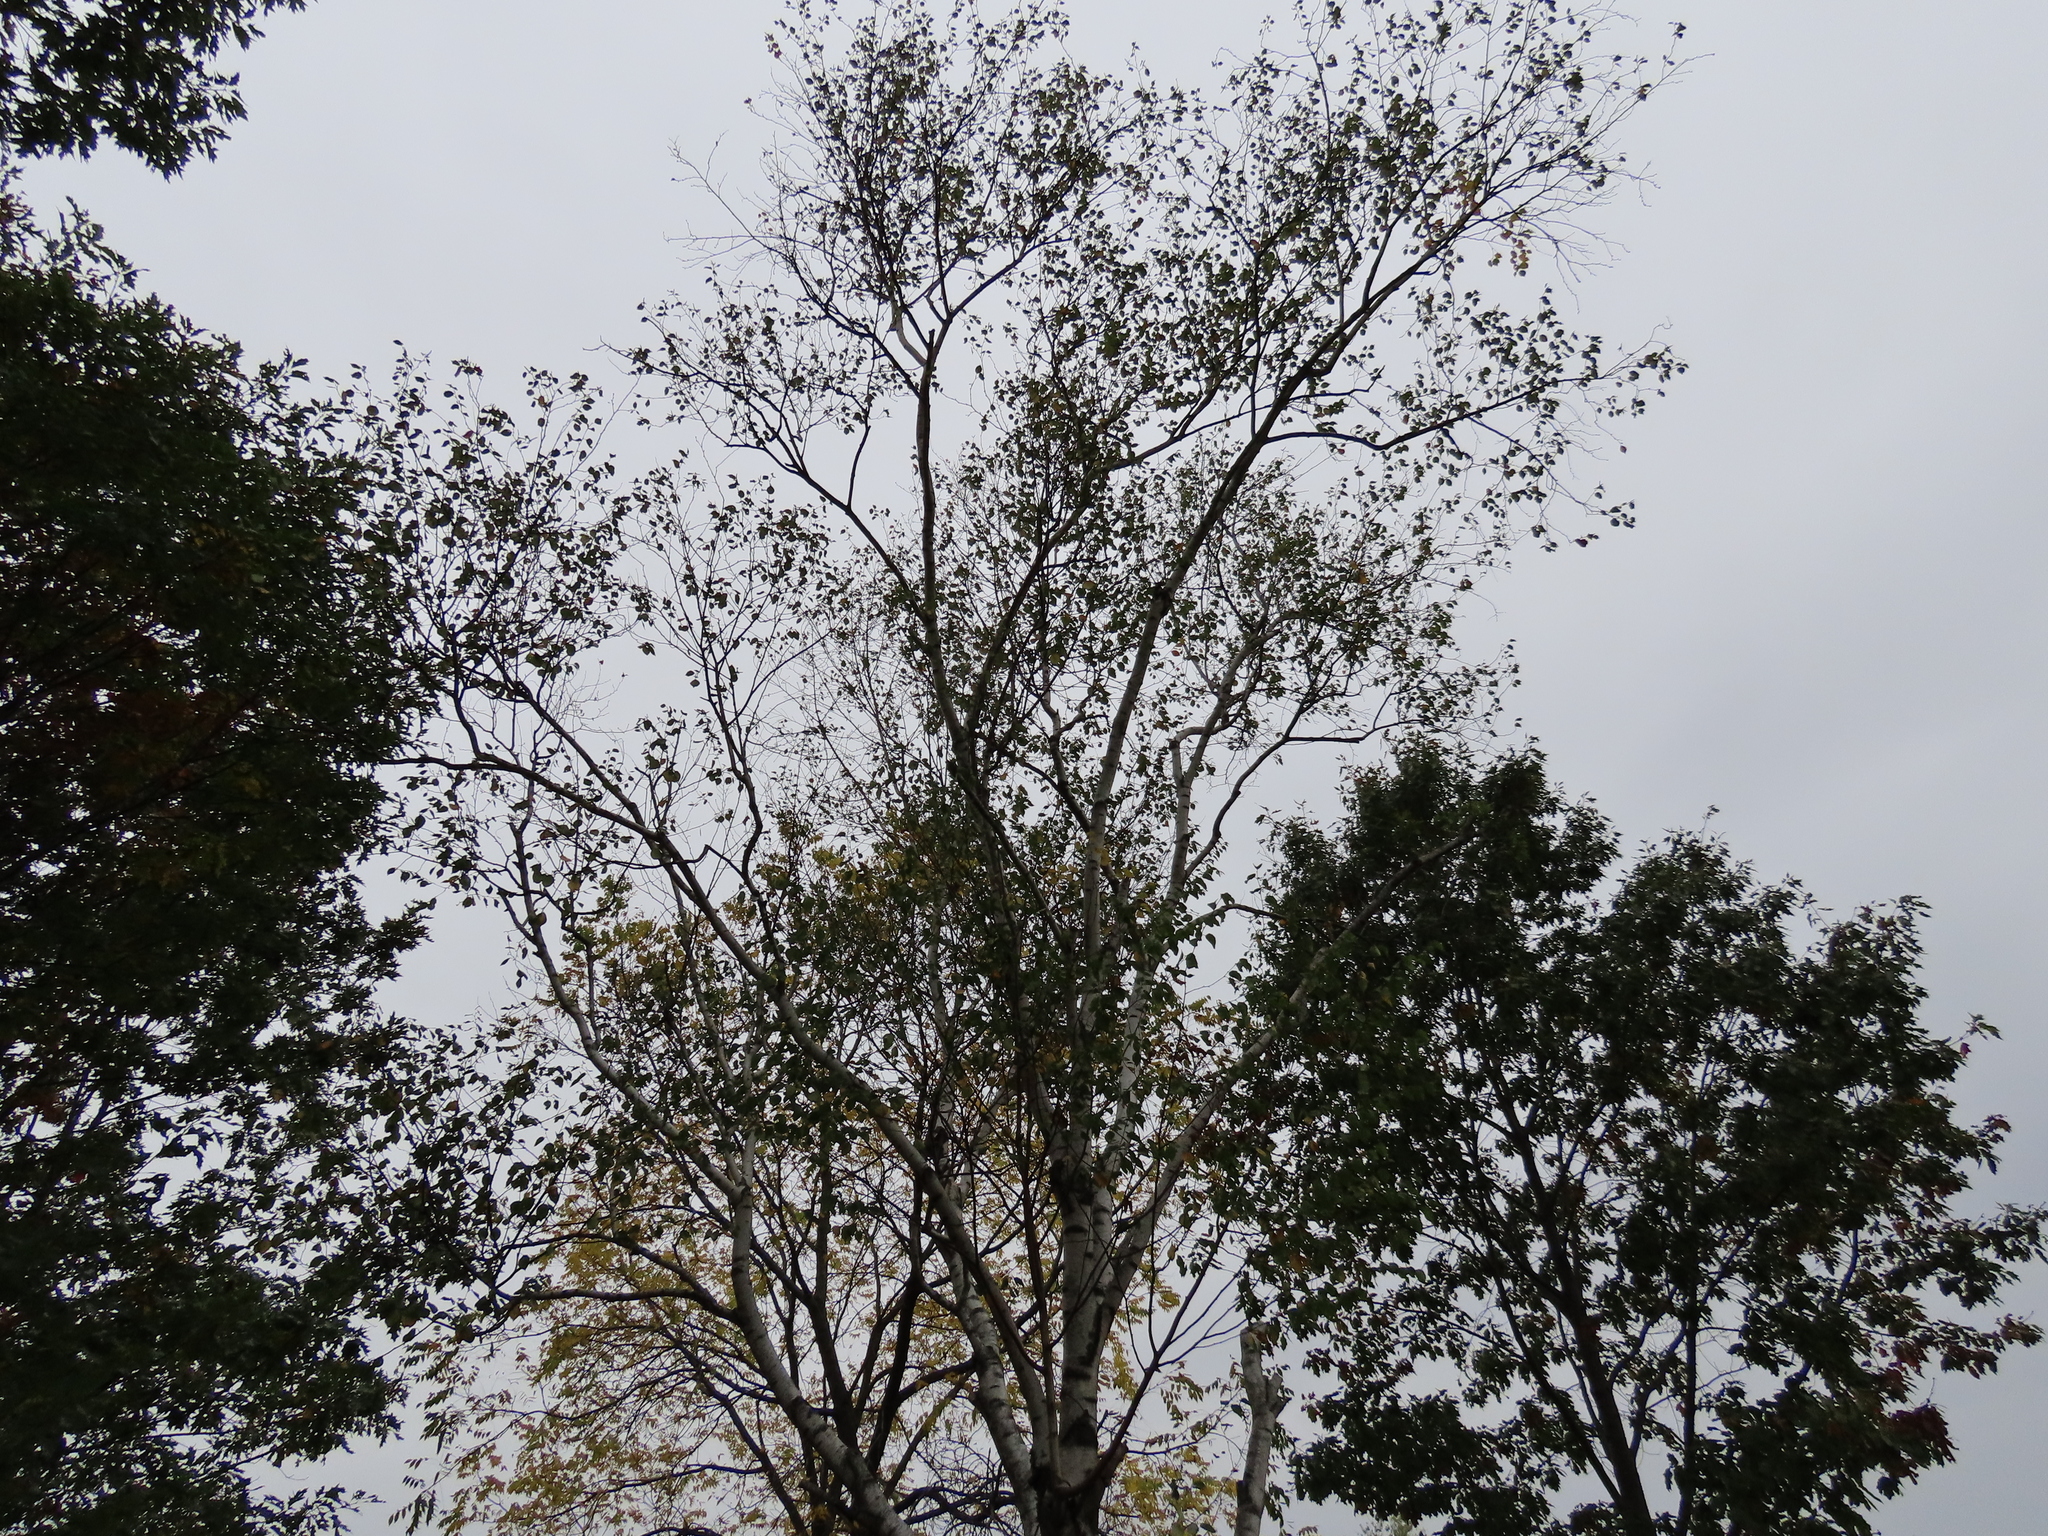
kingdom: Plantae
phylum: Tracheophyta
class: Magnoliopsida
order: Fagales
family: Betulaceae
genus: Betula
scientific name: Betula papyrifera
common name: Paper birch
